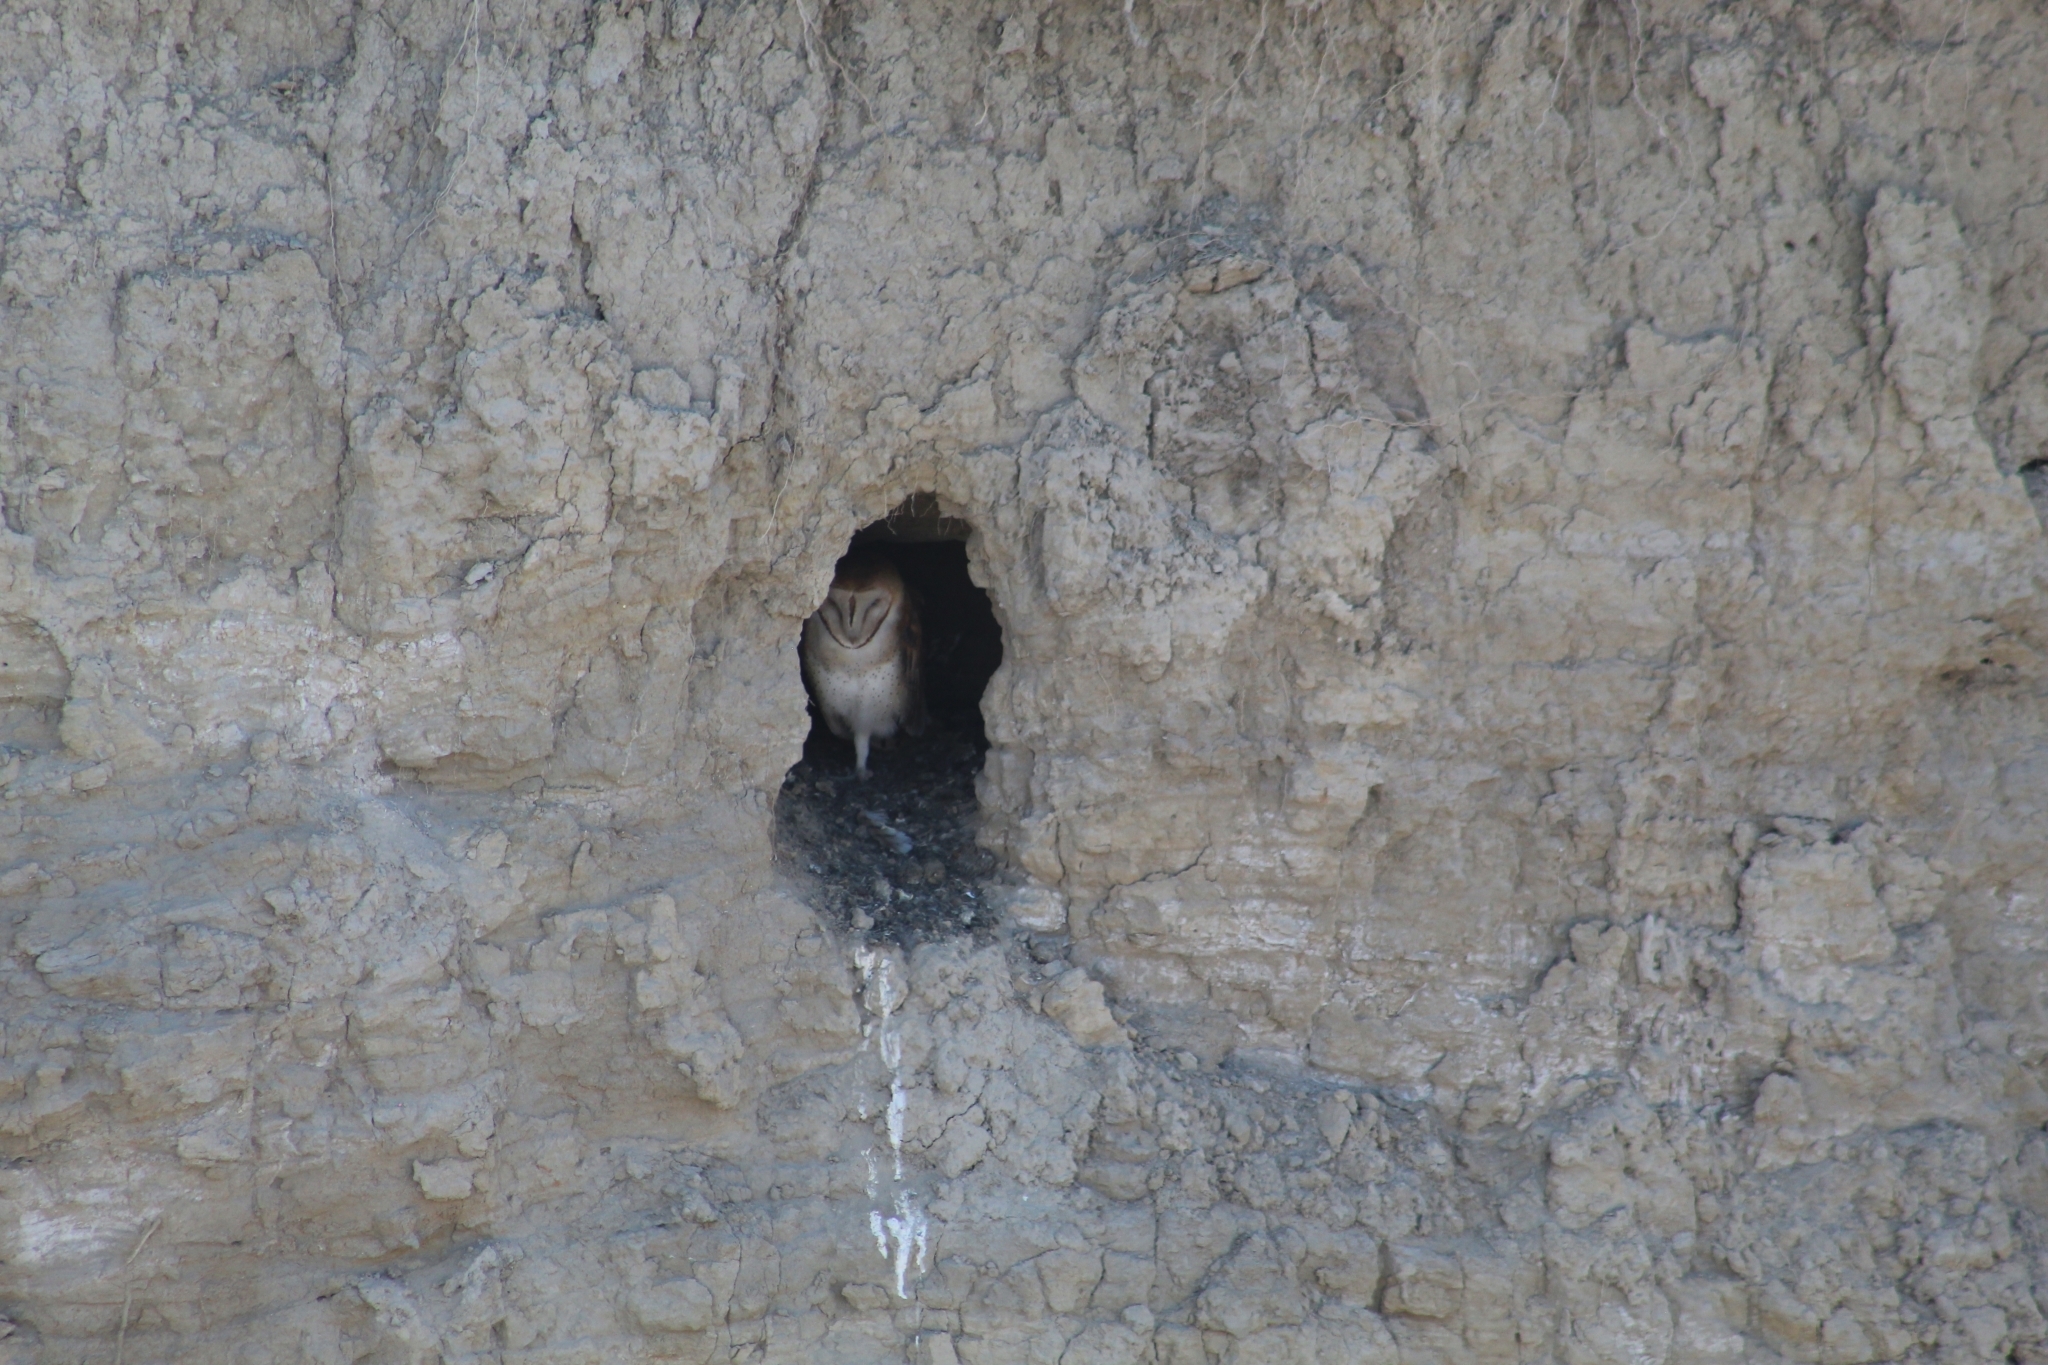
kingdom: Animalia
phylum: Chordata
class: Aves
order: Strigiformes
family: Tytonidae
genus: Tyto
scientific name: Tyto alba
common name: Barn owl
